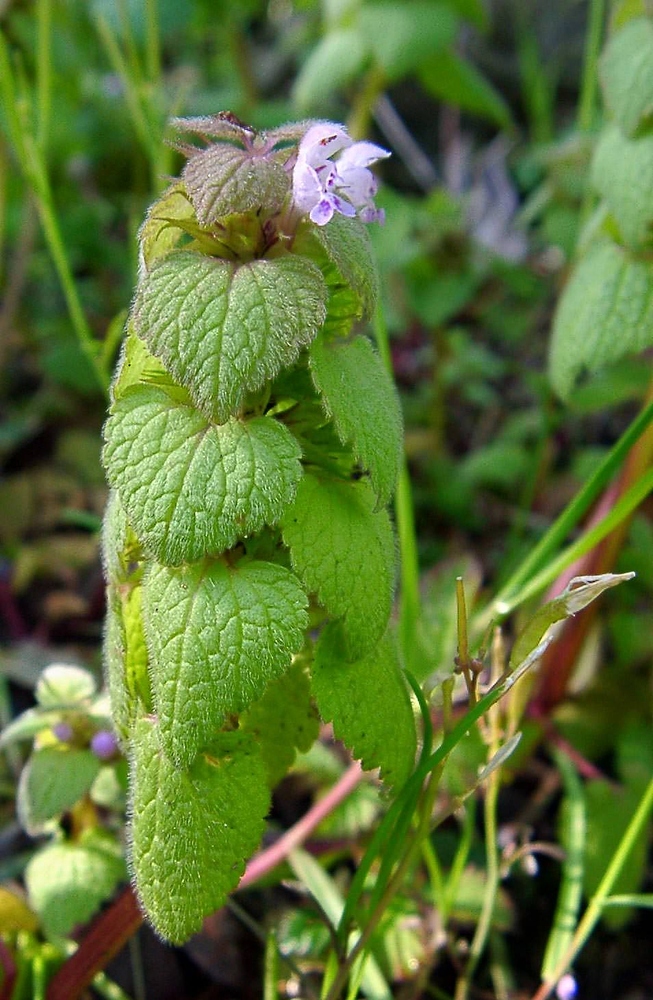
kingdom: Plantae
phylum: Tracheophyta
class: Magnoliopsida
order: Lamiales
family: Lamiaceae
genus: Lamium
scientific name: Lamium purpureum
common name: Red dead-nettle
